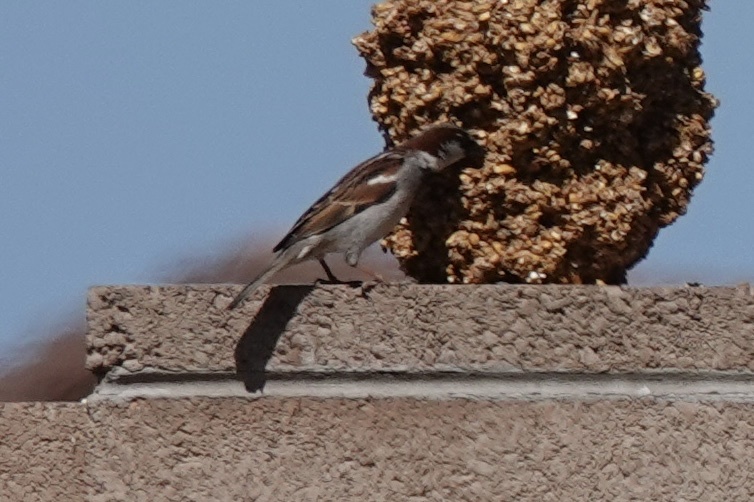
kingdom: Animalia
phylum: Chordata
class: Aves
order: Passeriformes
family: Passeridae
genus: Passer
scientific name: Passer domesticus
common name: House sparrow
